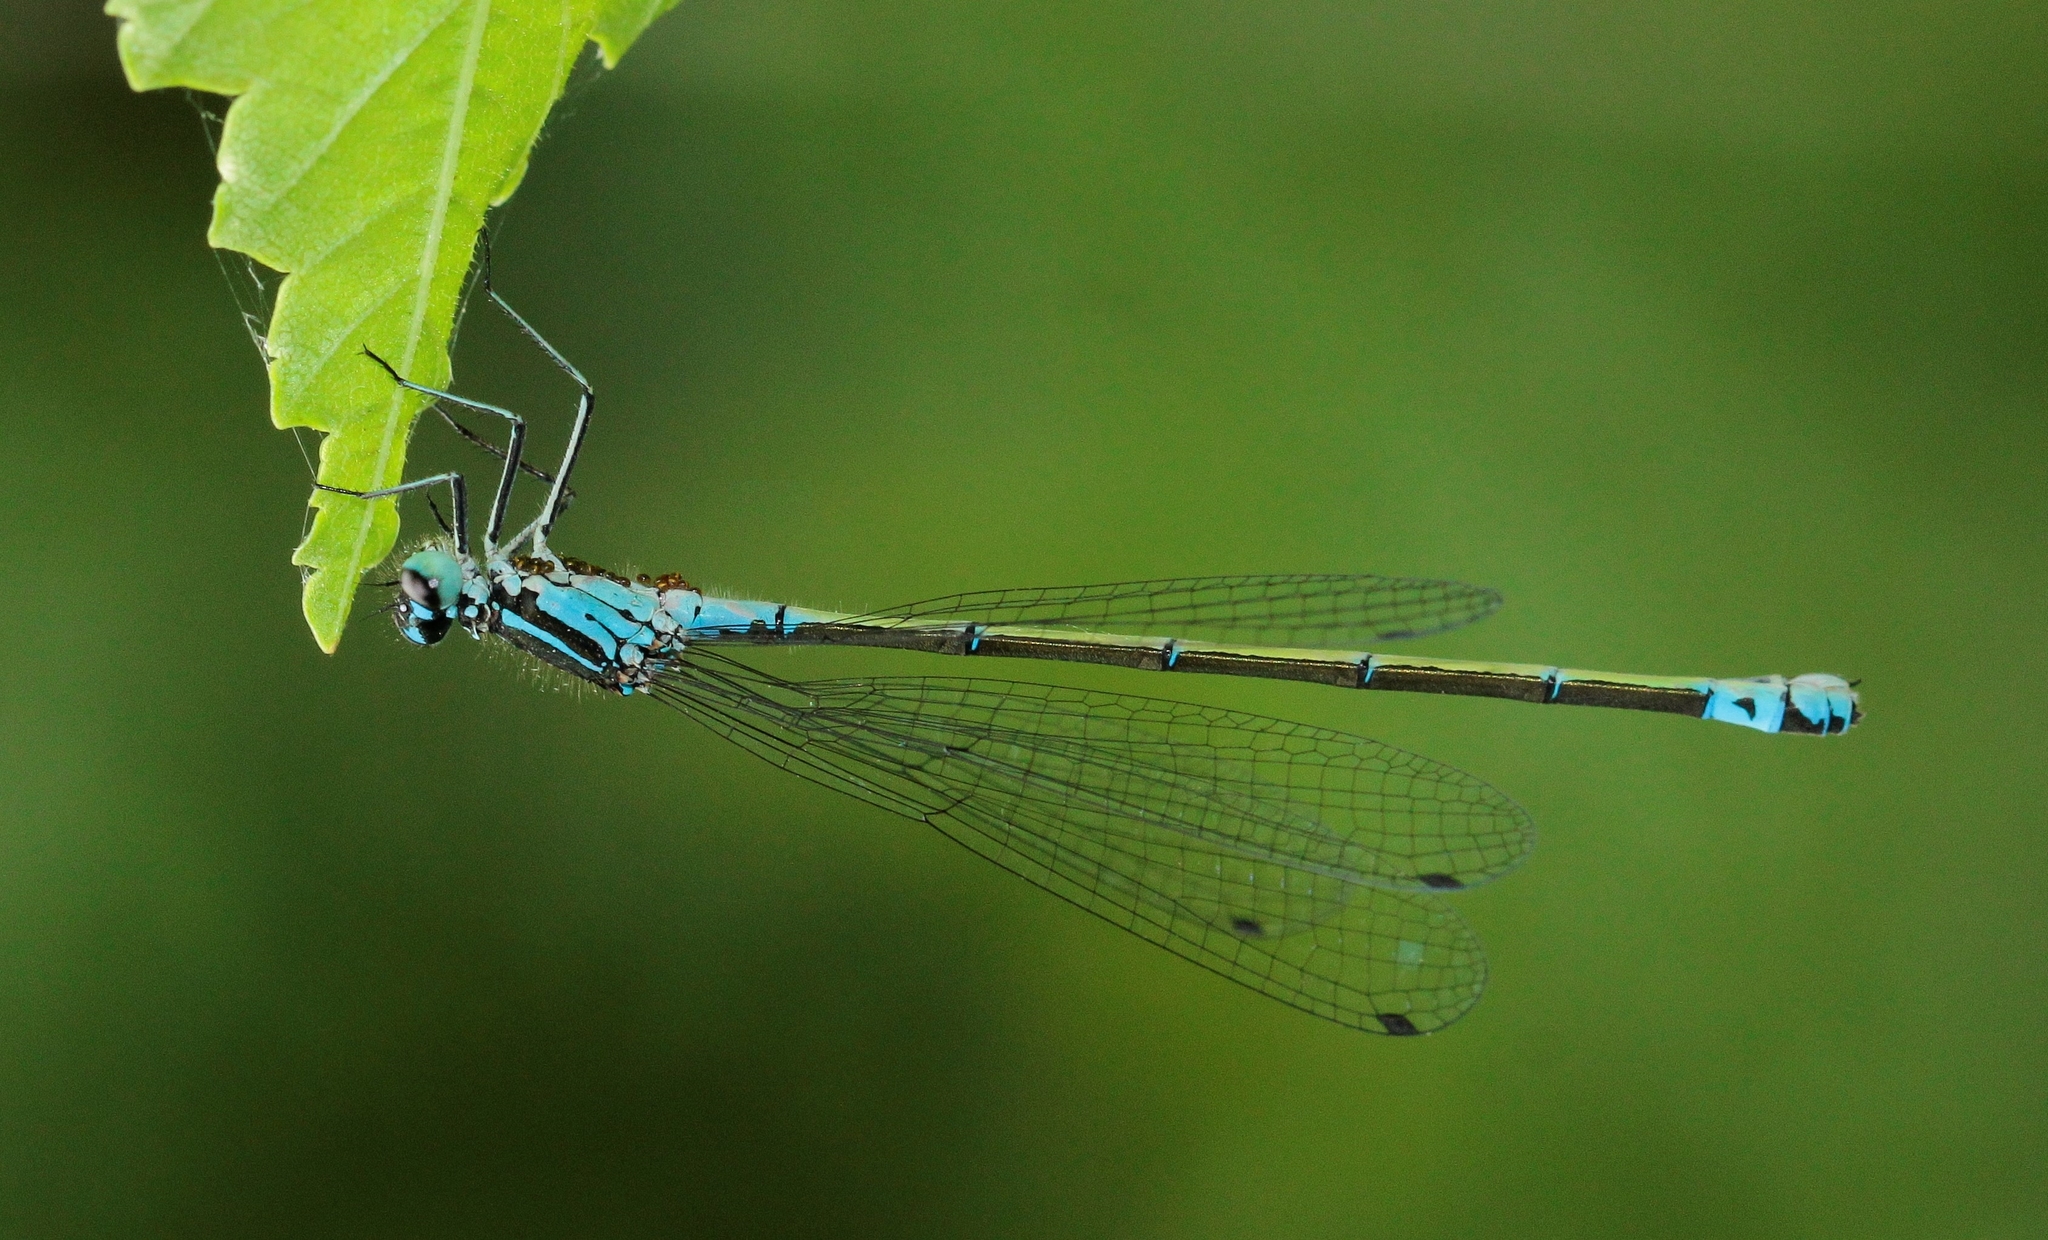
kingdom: Animalia
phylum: Arthropoda
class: Insecta
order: Odonata
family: Coenagrionidae
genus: Coenagrion
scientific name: Coenagrion pulchellum
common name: Variable bluet
